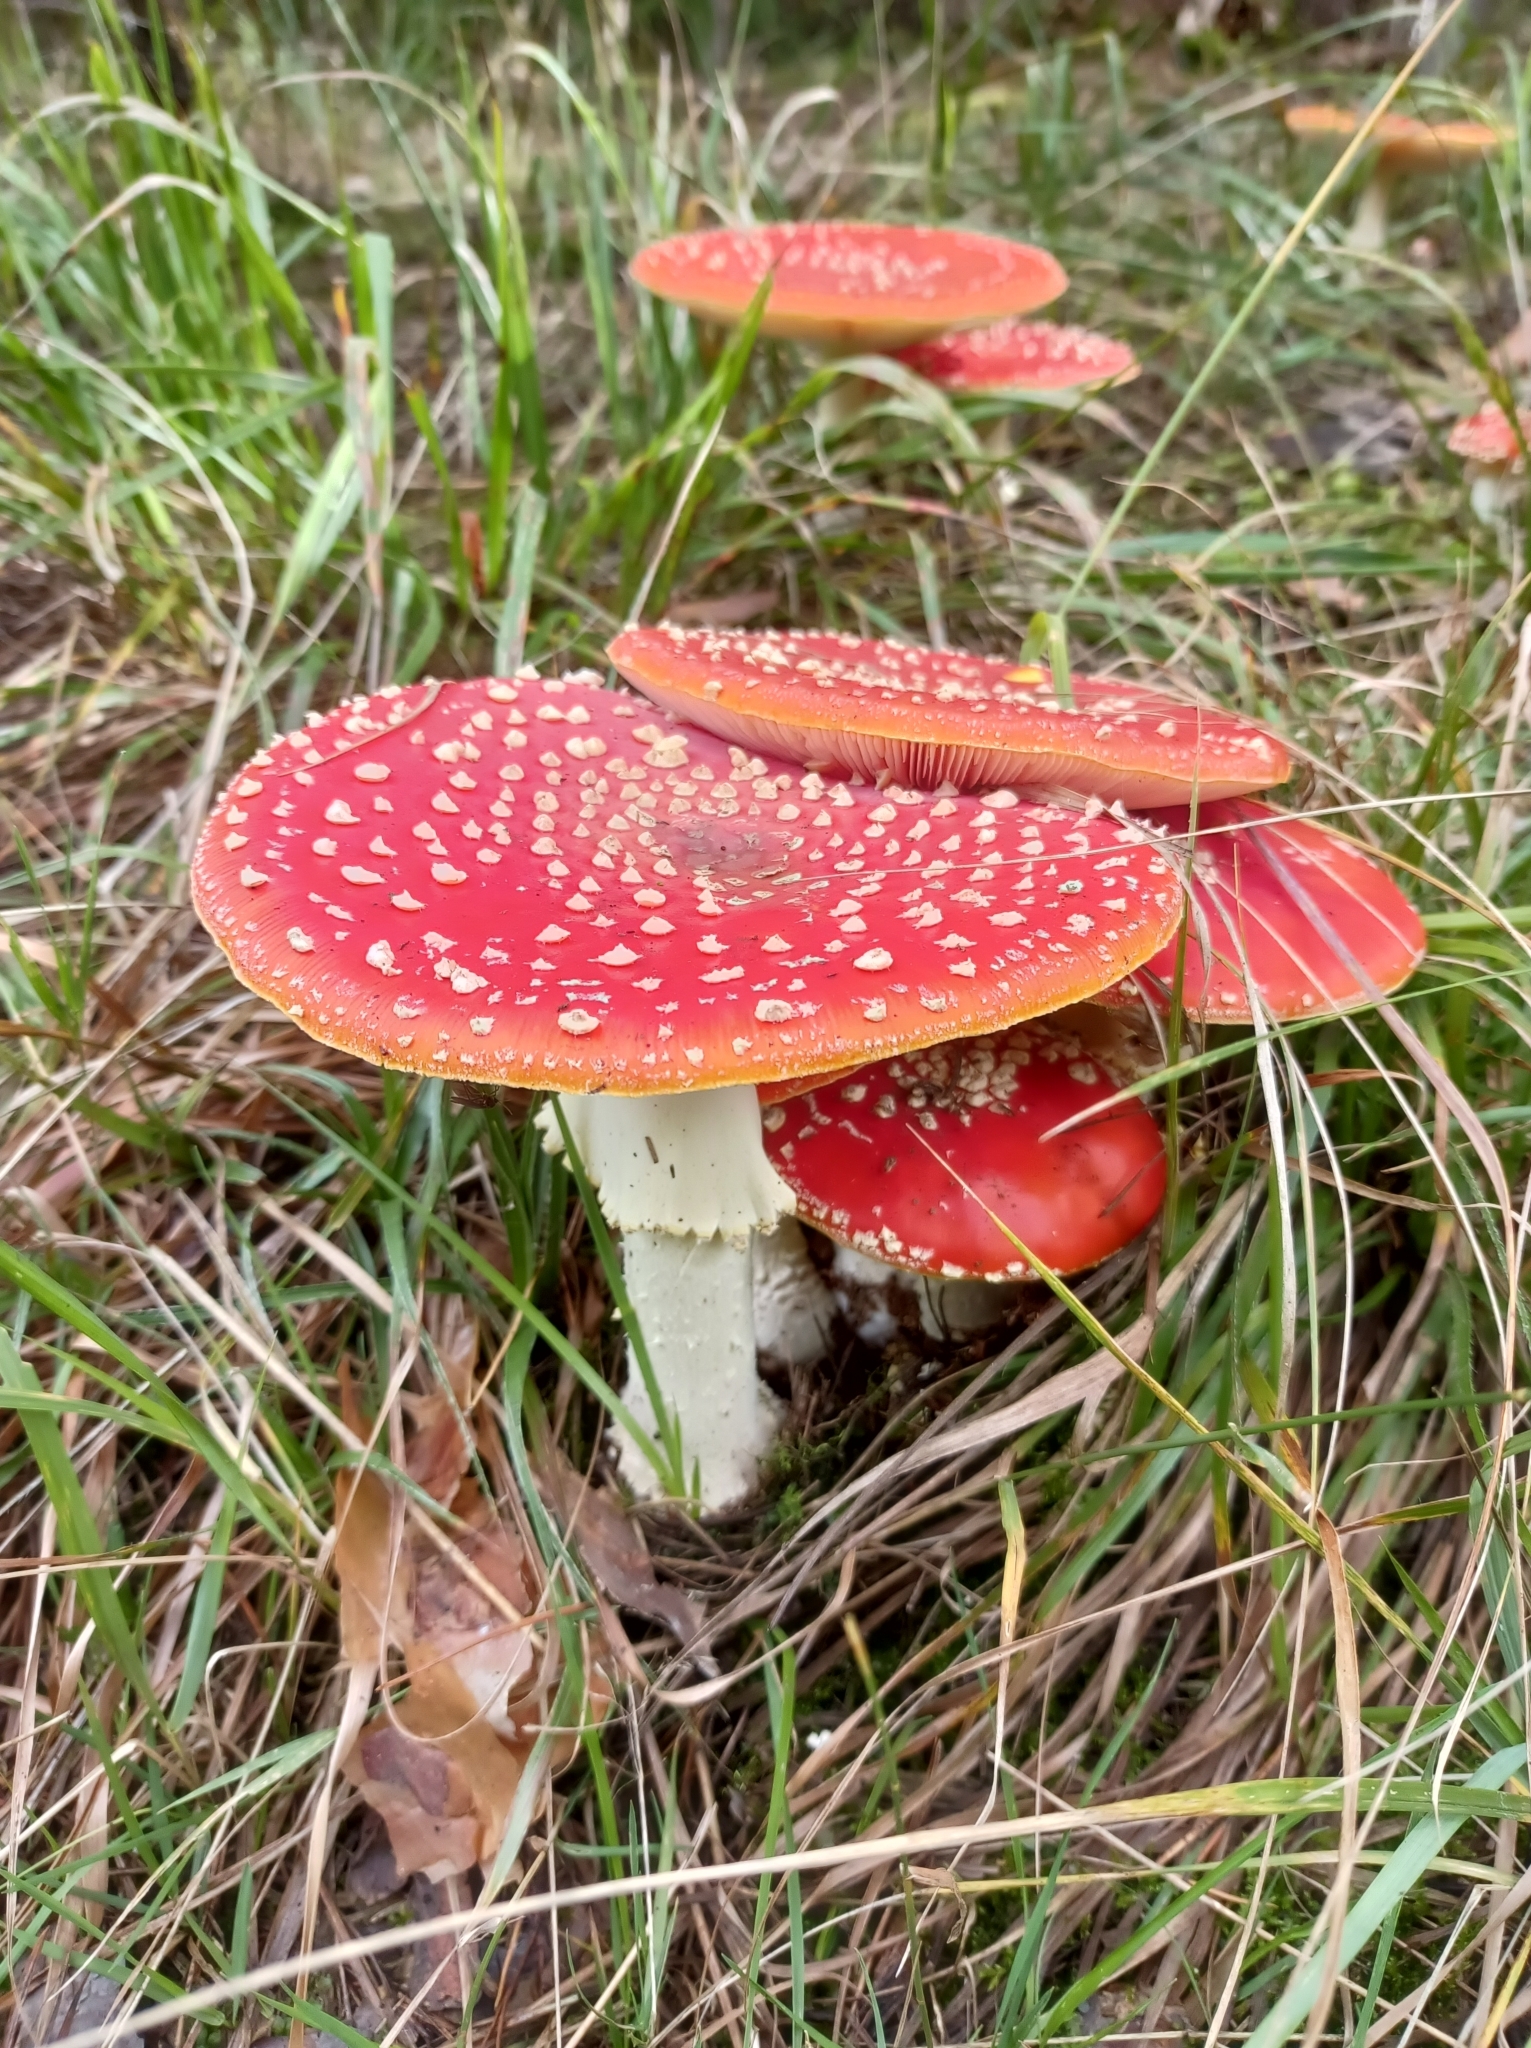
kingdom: Fungi
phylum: Basidiomycota
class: Agaricomycetes
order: Agaricales
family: Amanitaceae
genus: Amanita
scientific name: Amanita muscaria
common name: Fly agaric
